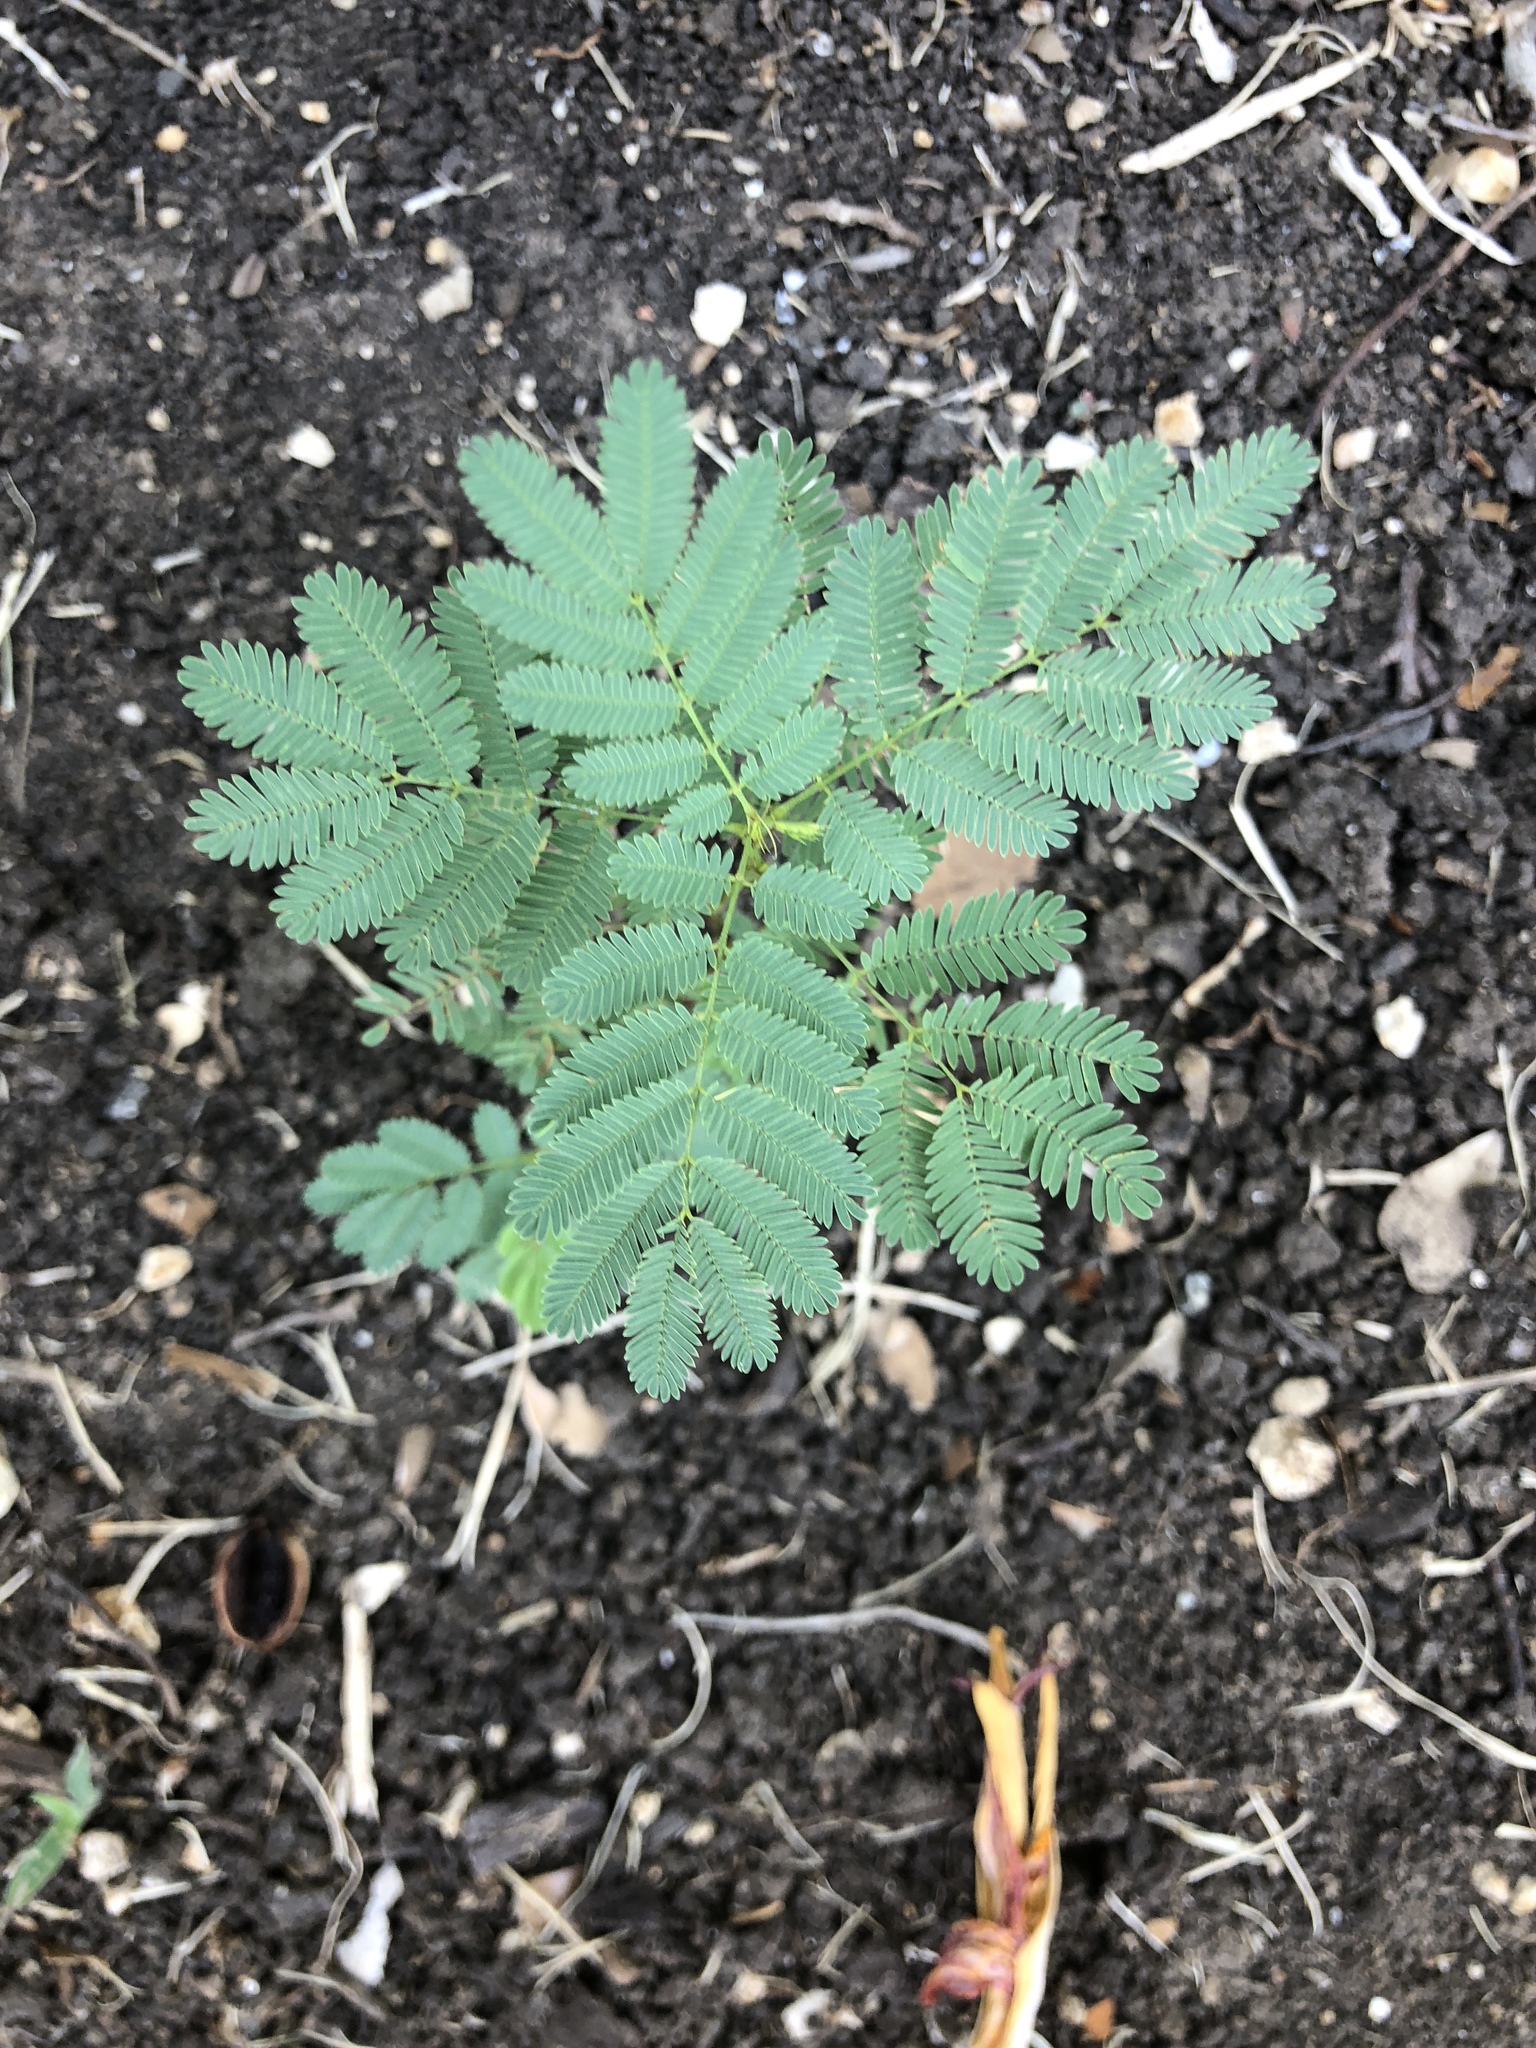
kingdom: Plantae
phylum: Tracheophyta
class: Magnoliopsida
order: Fabales
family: Fabaceae
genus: Albizia
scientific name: Albizia julibrissin
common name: Silktree
